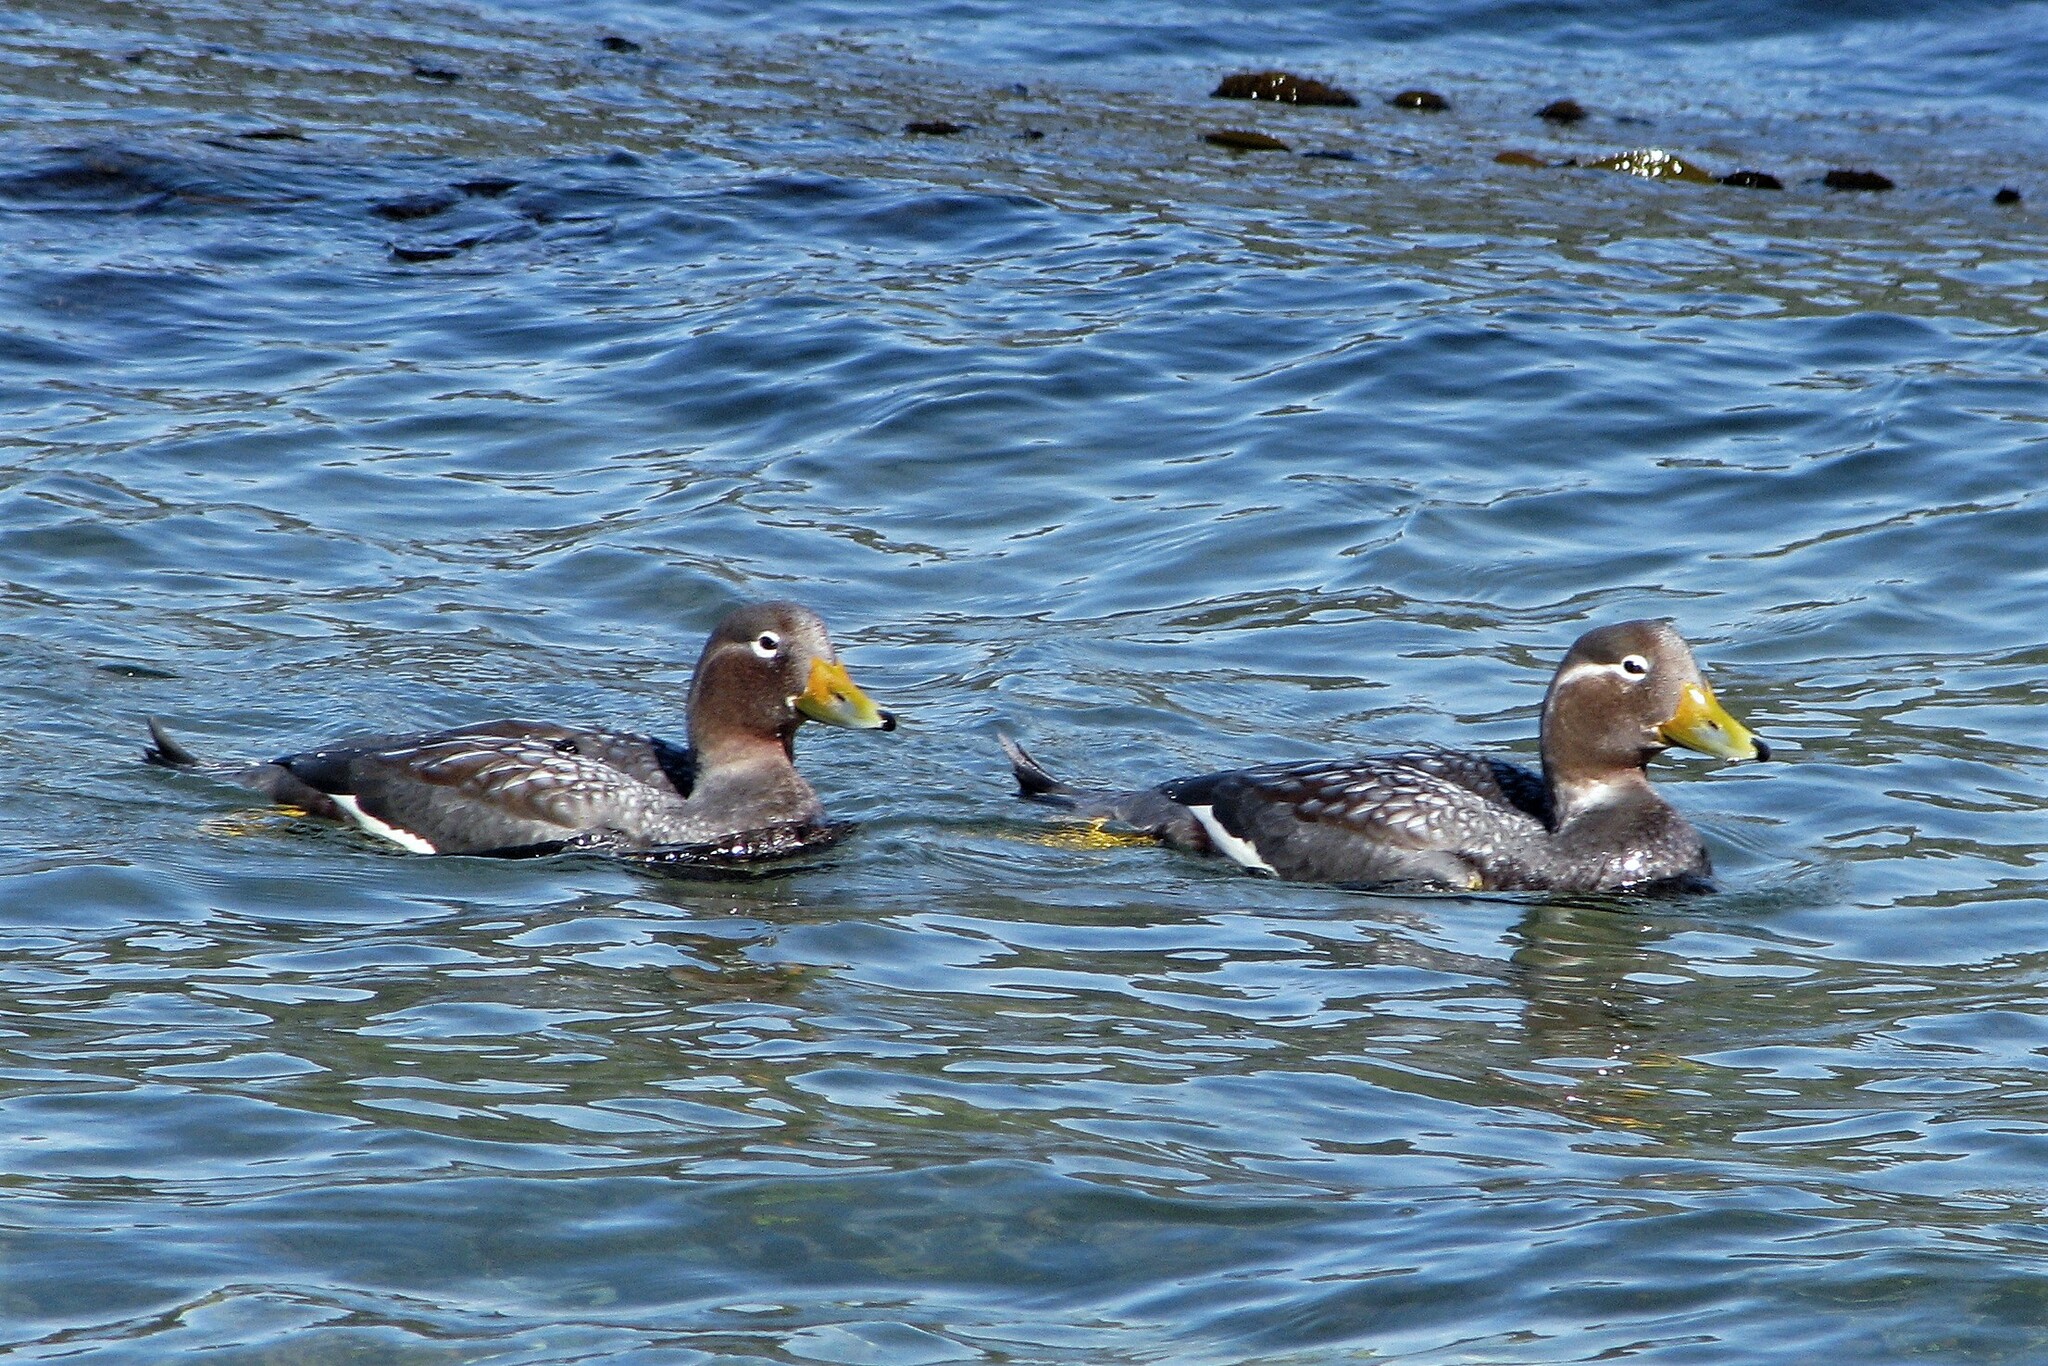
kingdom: Animalia
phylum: Chordata
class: Aves
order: Anseriformes
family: Anatidae
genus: Tachyeres
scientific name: Tachyeres patachonicus
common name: Flying steamer duck
